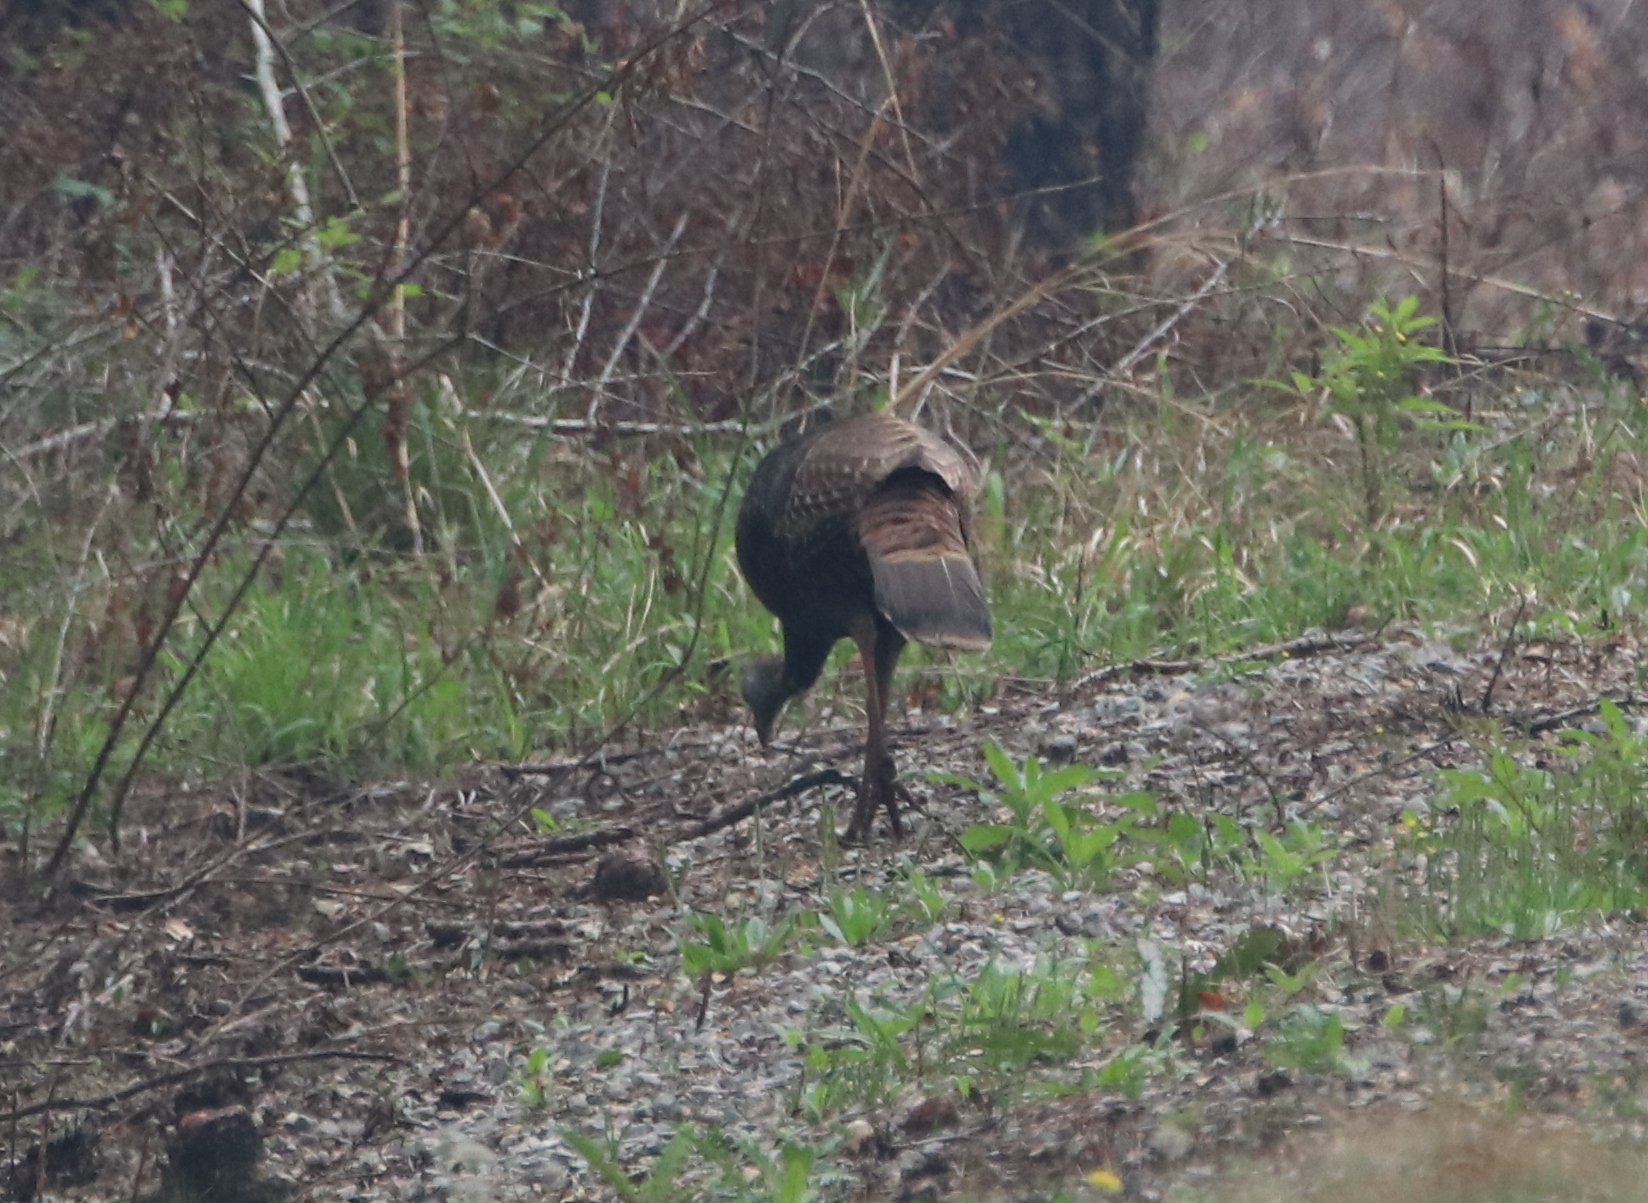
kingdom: Animalia
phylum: Chordata
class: Aves
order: Galliformes
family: Phasianidae
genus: Meleagris
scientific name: Meleagris gallopavo
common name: Wild turkey
